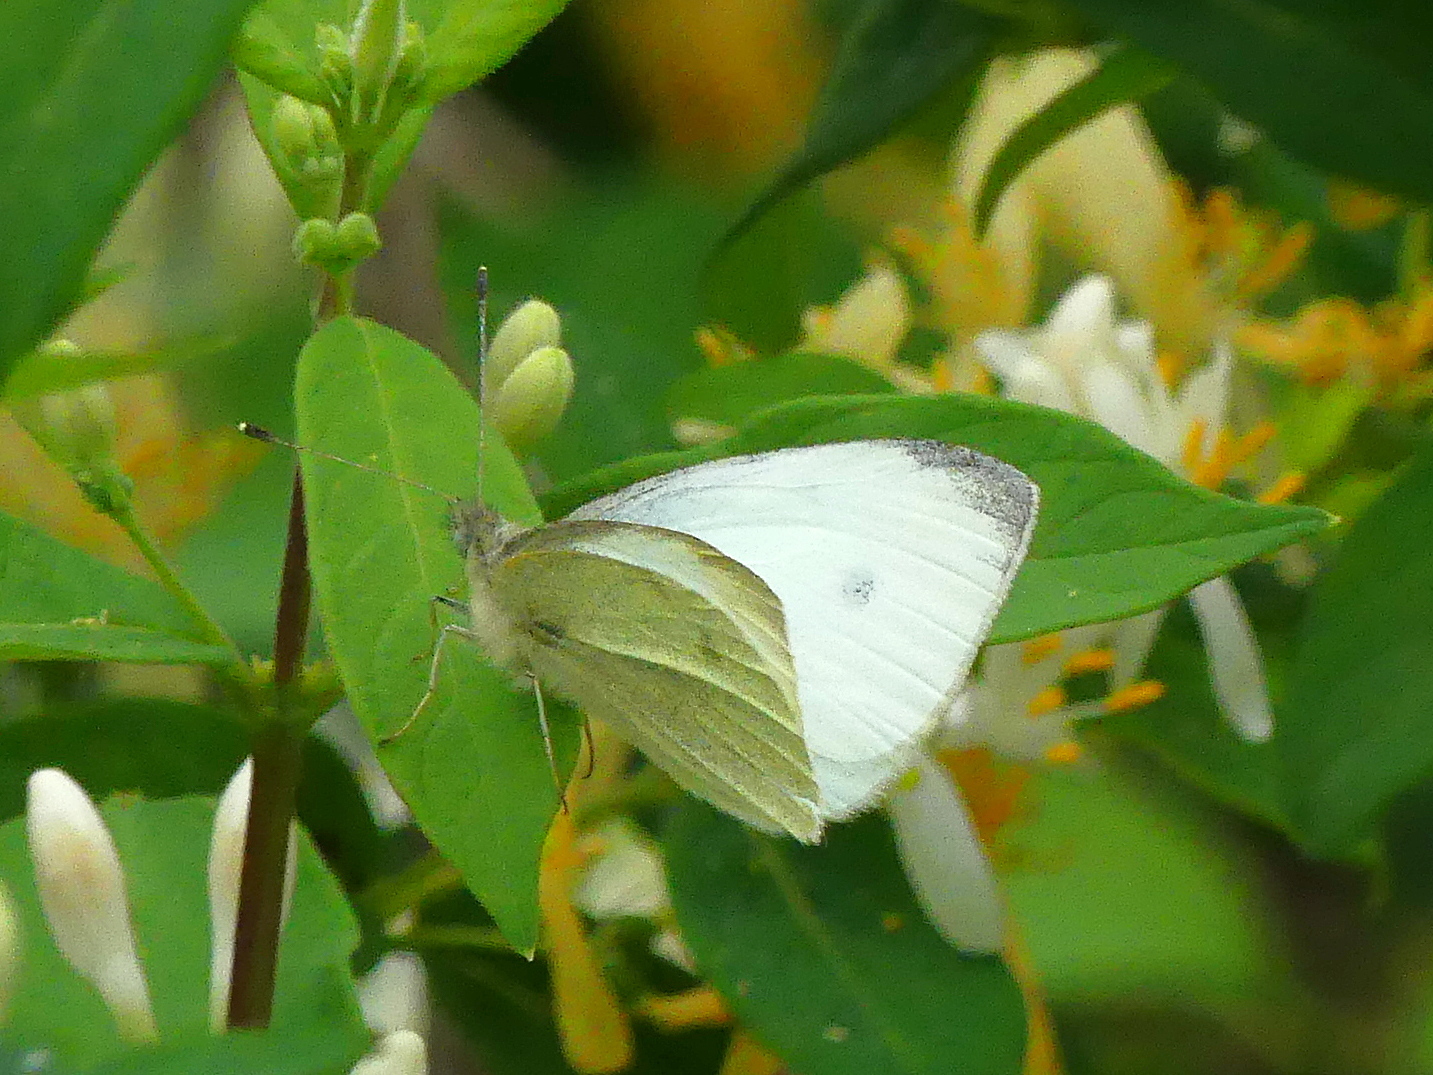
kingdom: Animalia
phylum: Arthropoda
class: Insecta
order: Lepidoptera
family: Pieridae
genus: Pieris
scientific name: Pieris rapae
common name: Small white
